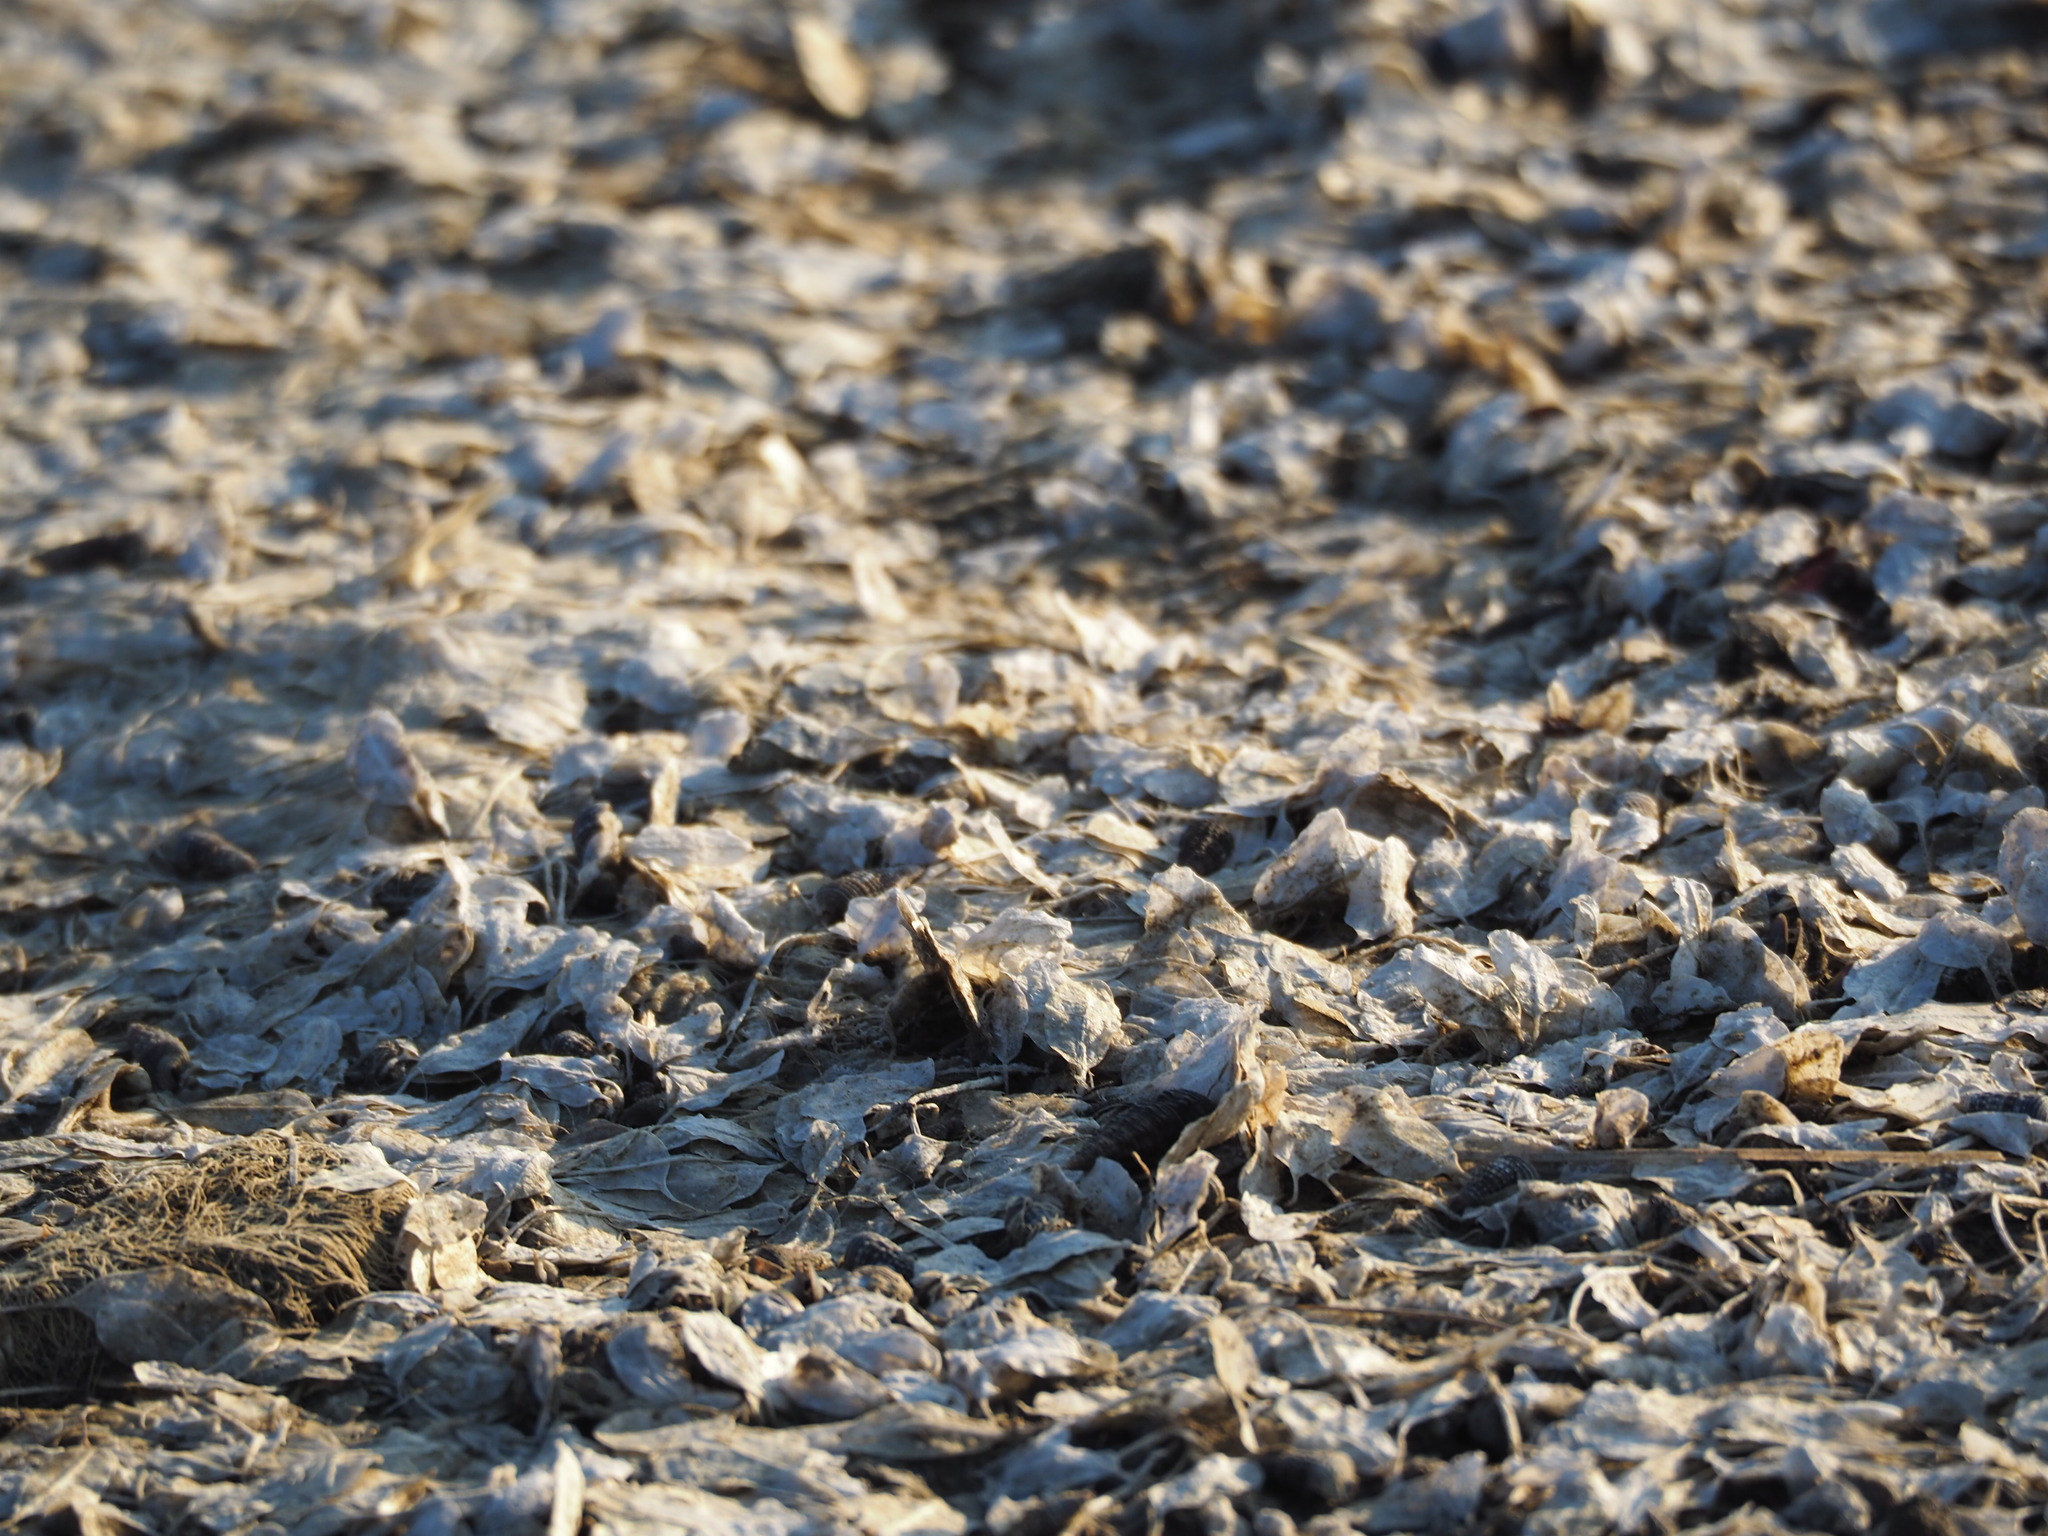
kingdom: Plantae
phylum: Tracheophyta
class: Liliopsida
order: Alismatales
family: Hydrocharitaceae
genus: Halophila
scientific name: Halophila ovalis
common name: Species code: ho
